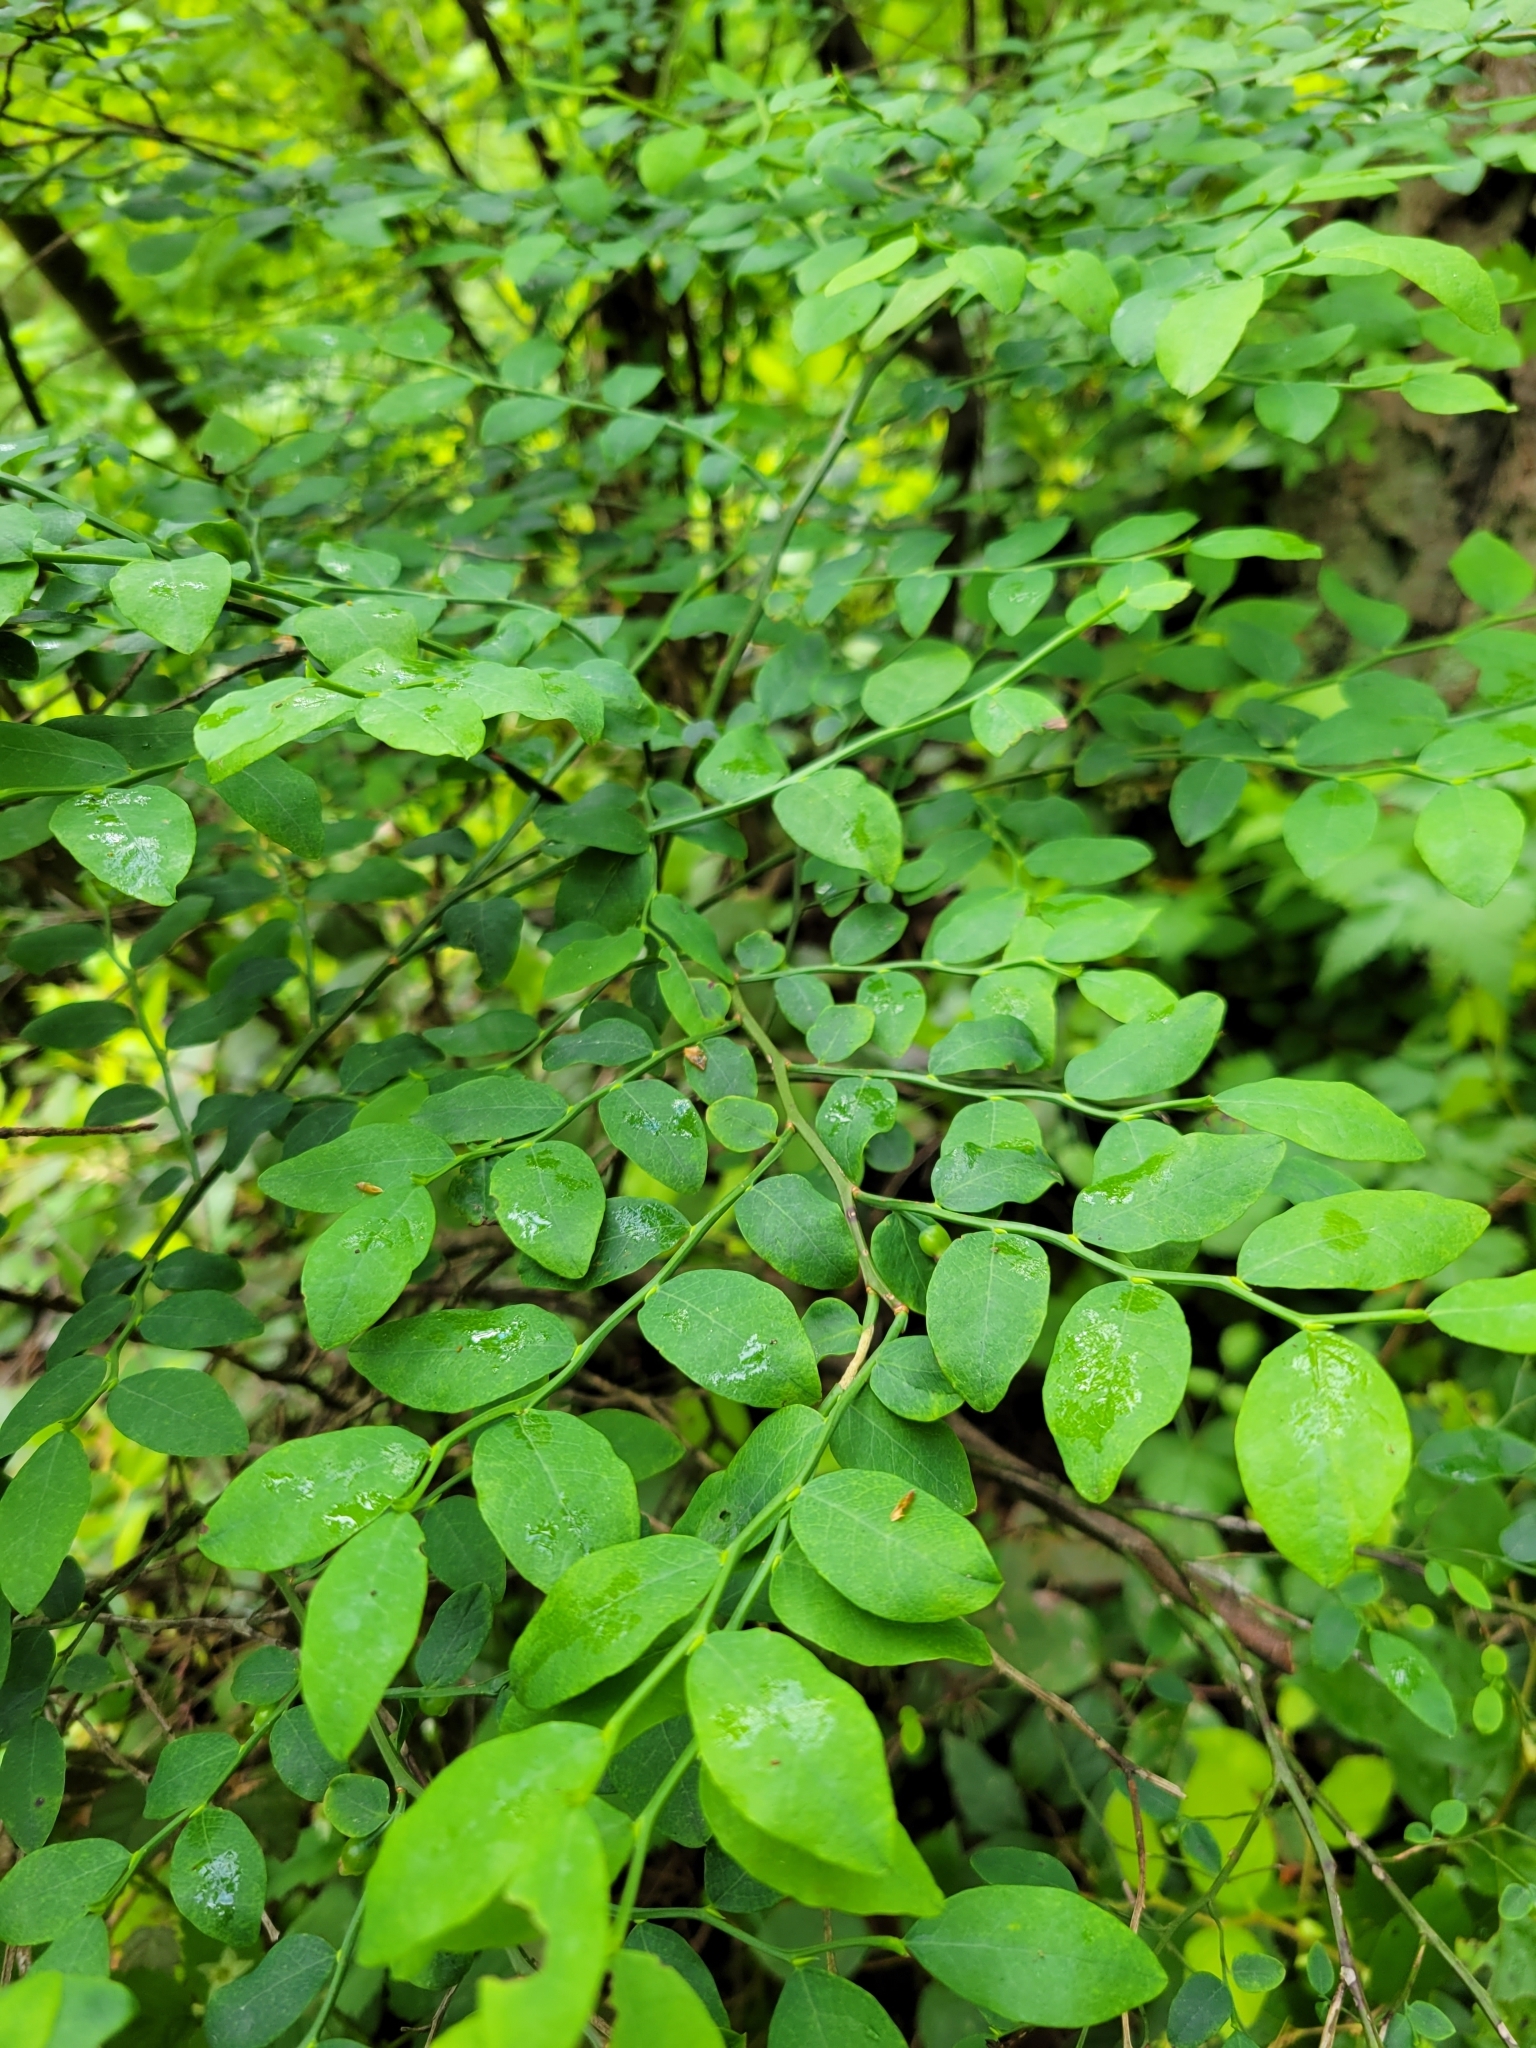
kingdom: Plantae
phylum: Tracheophyta
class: Magnoliopsida
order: Ericales
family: Ericaceae
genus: Vaccinium
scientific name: Vaccinium parvifolium
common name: Red-huckleberry
